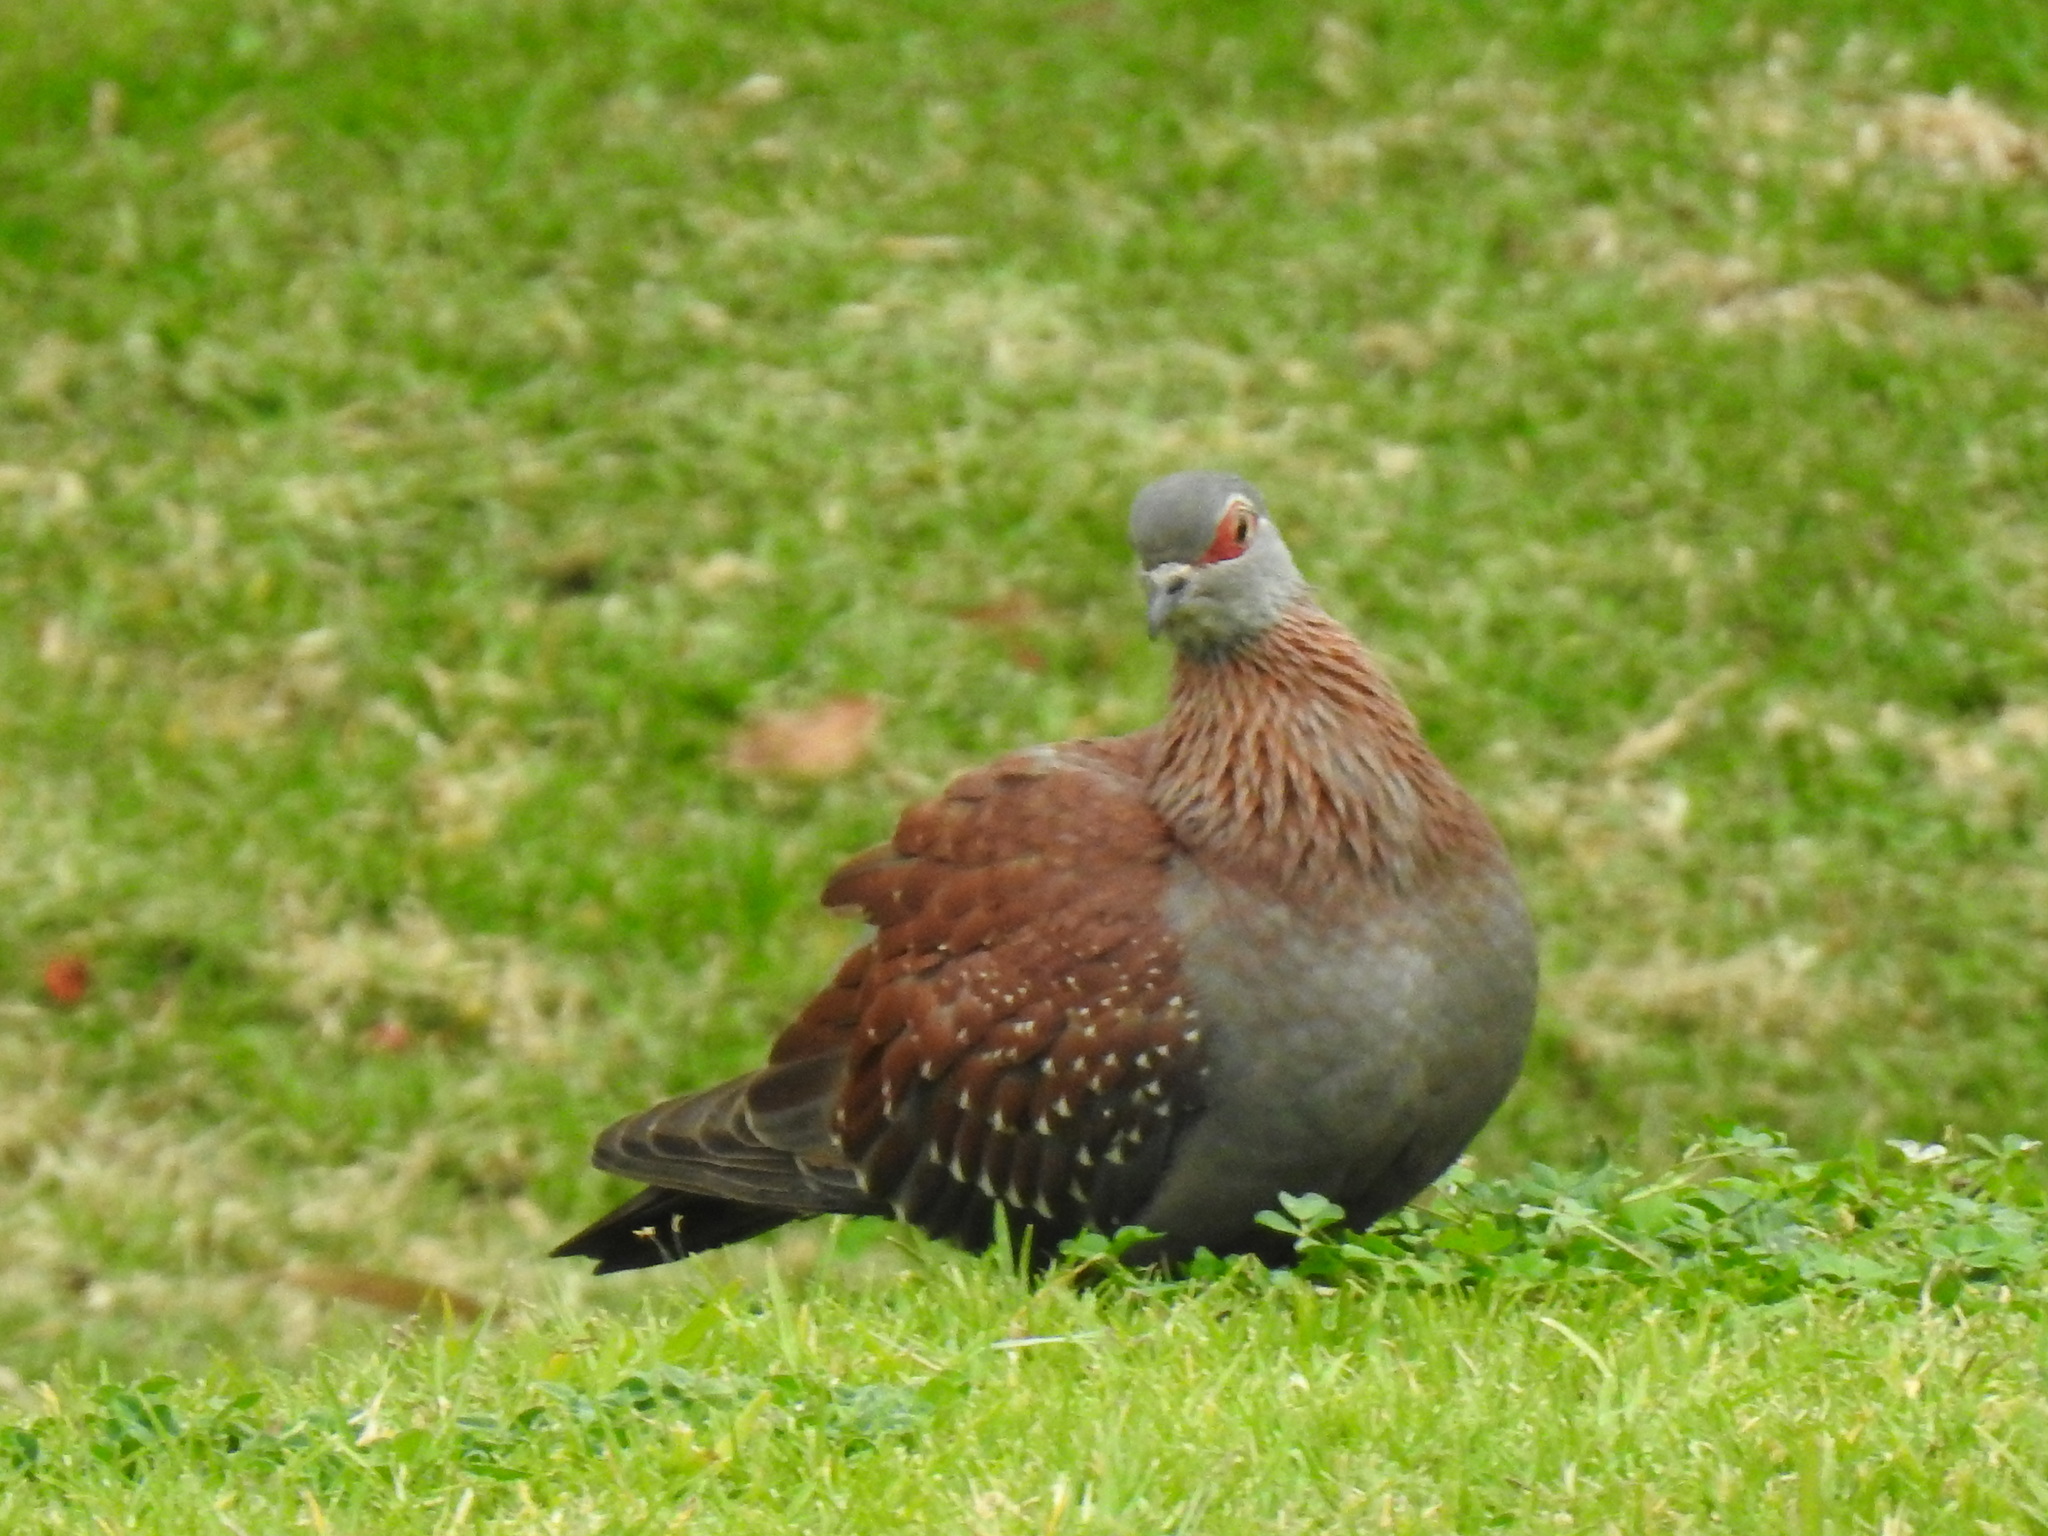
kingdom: Animalia
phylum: Chordata
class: Aves
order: Columbiformes
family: Columbidae
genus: Columba
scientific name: Columba guinea
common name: Speckled pigeon
